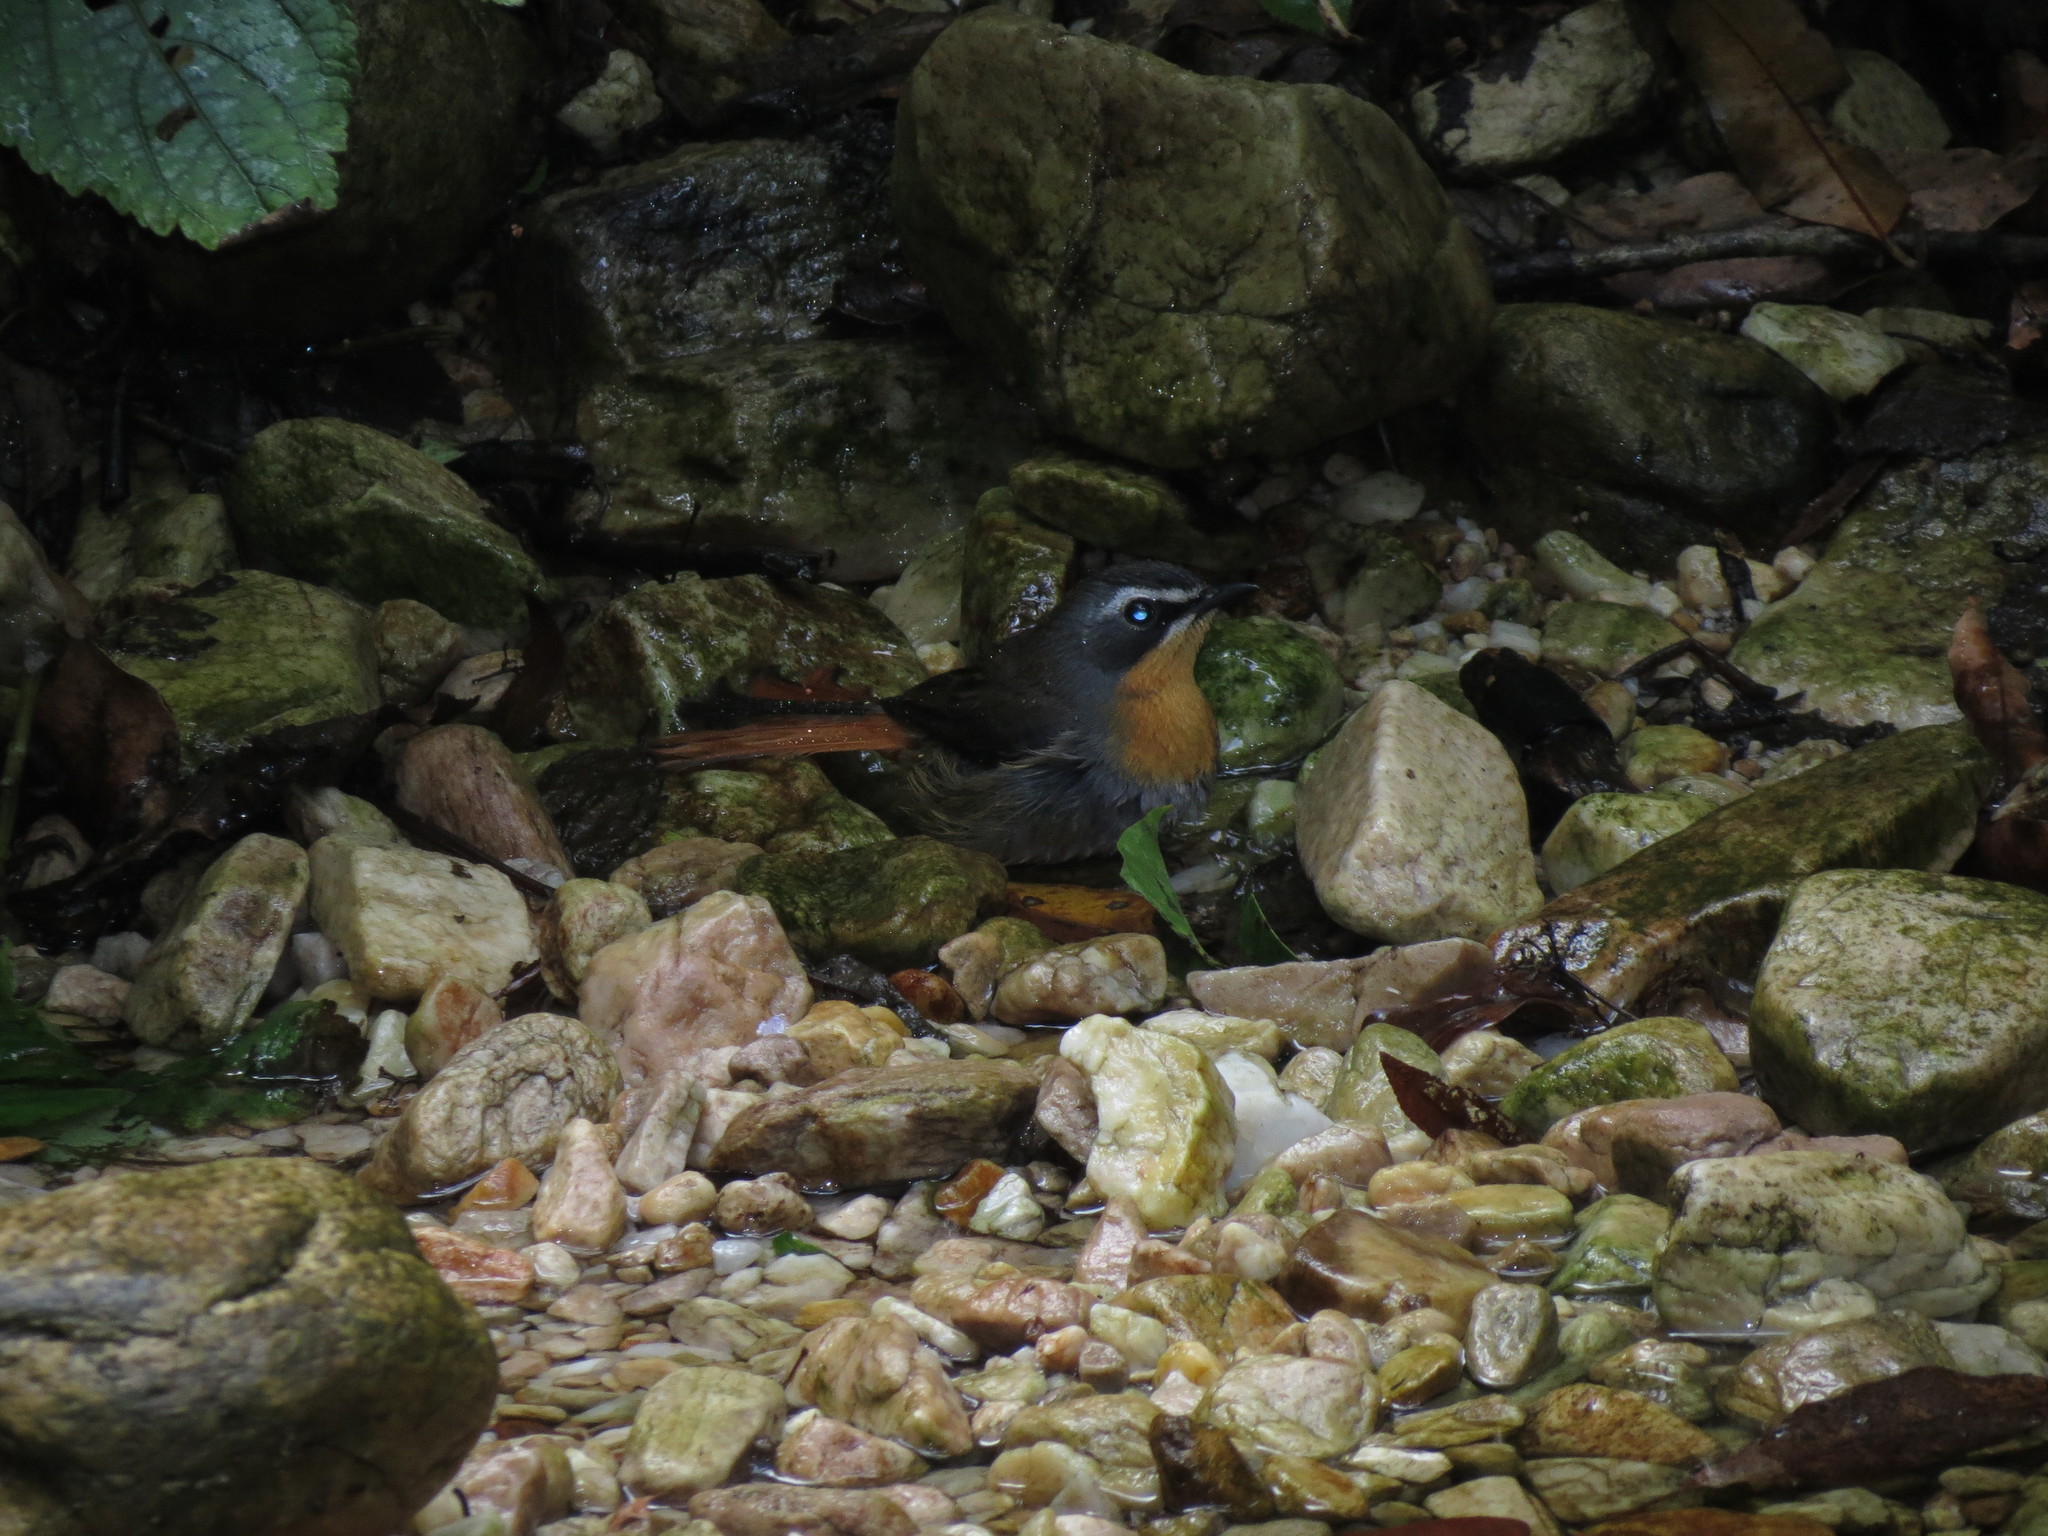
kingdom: Animalia
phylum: Chordata
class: Aves
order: Passeriformes
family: Muscicapidae
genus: Cossypha
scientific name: Cossypha caffra
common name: Cape robin-chat
